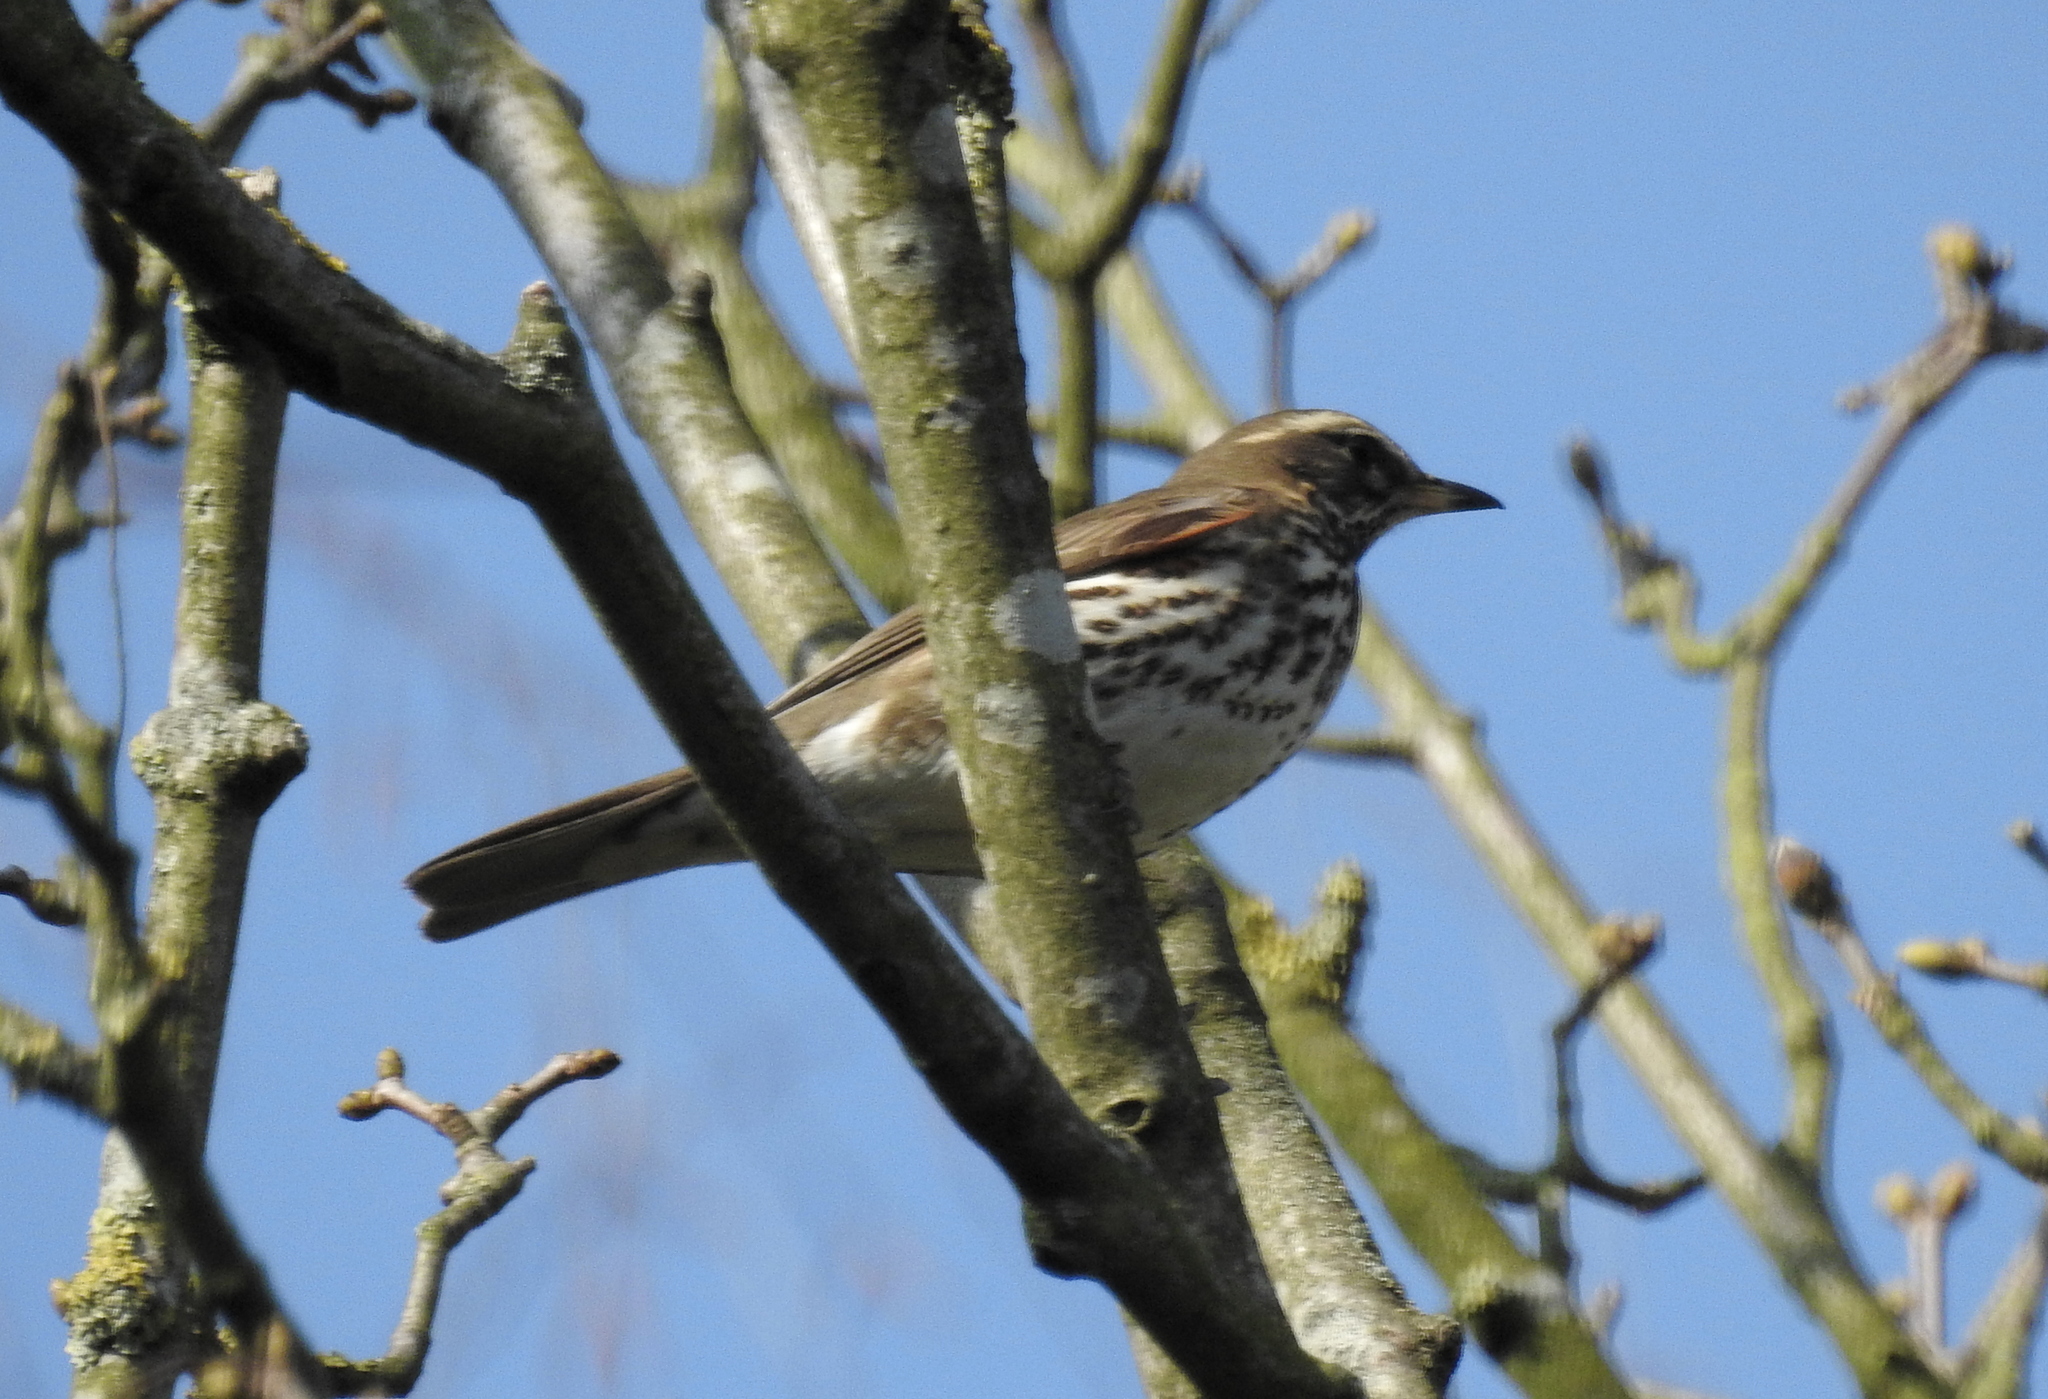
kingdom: Animalia
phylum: Chordata
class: Aves
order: Passeriformes
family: Turdidae
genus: Turdus
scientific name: Turdus iliacus
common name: Redwing
